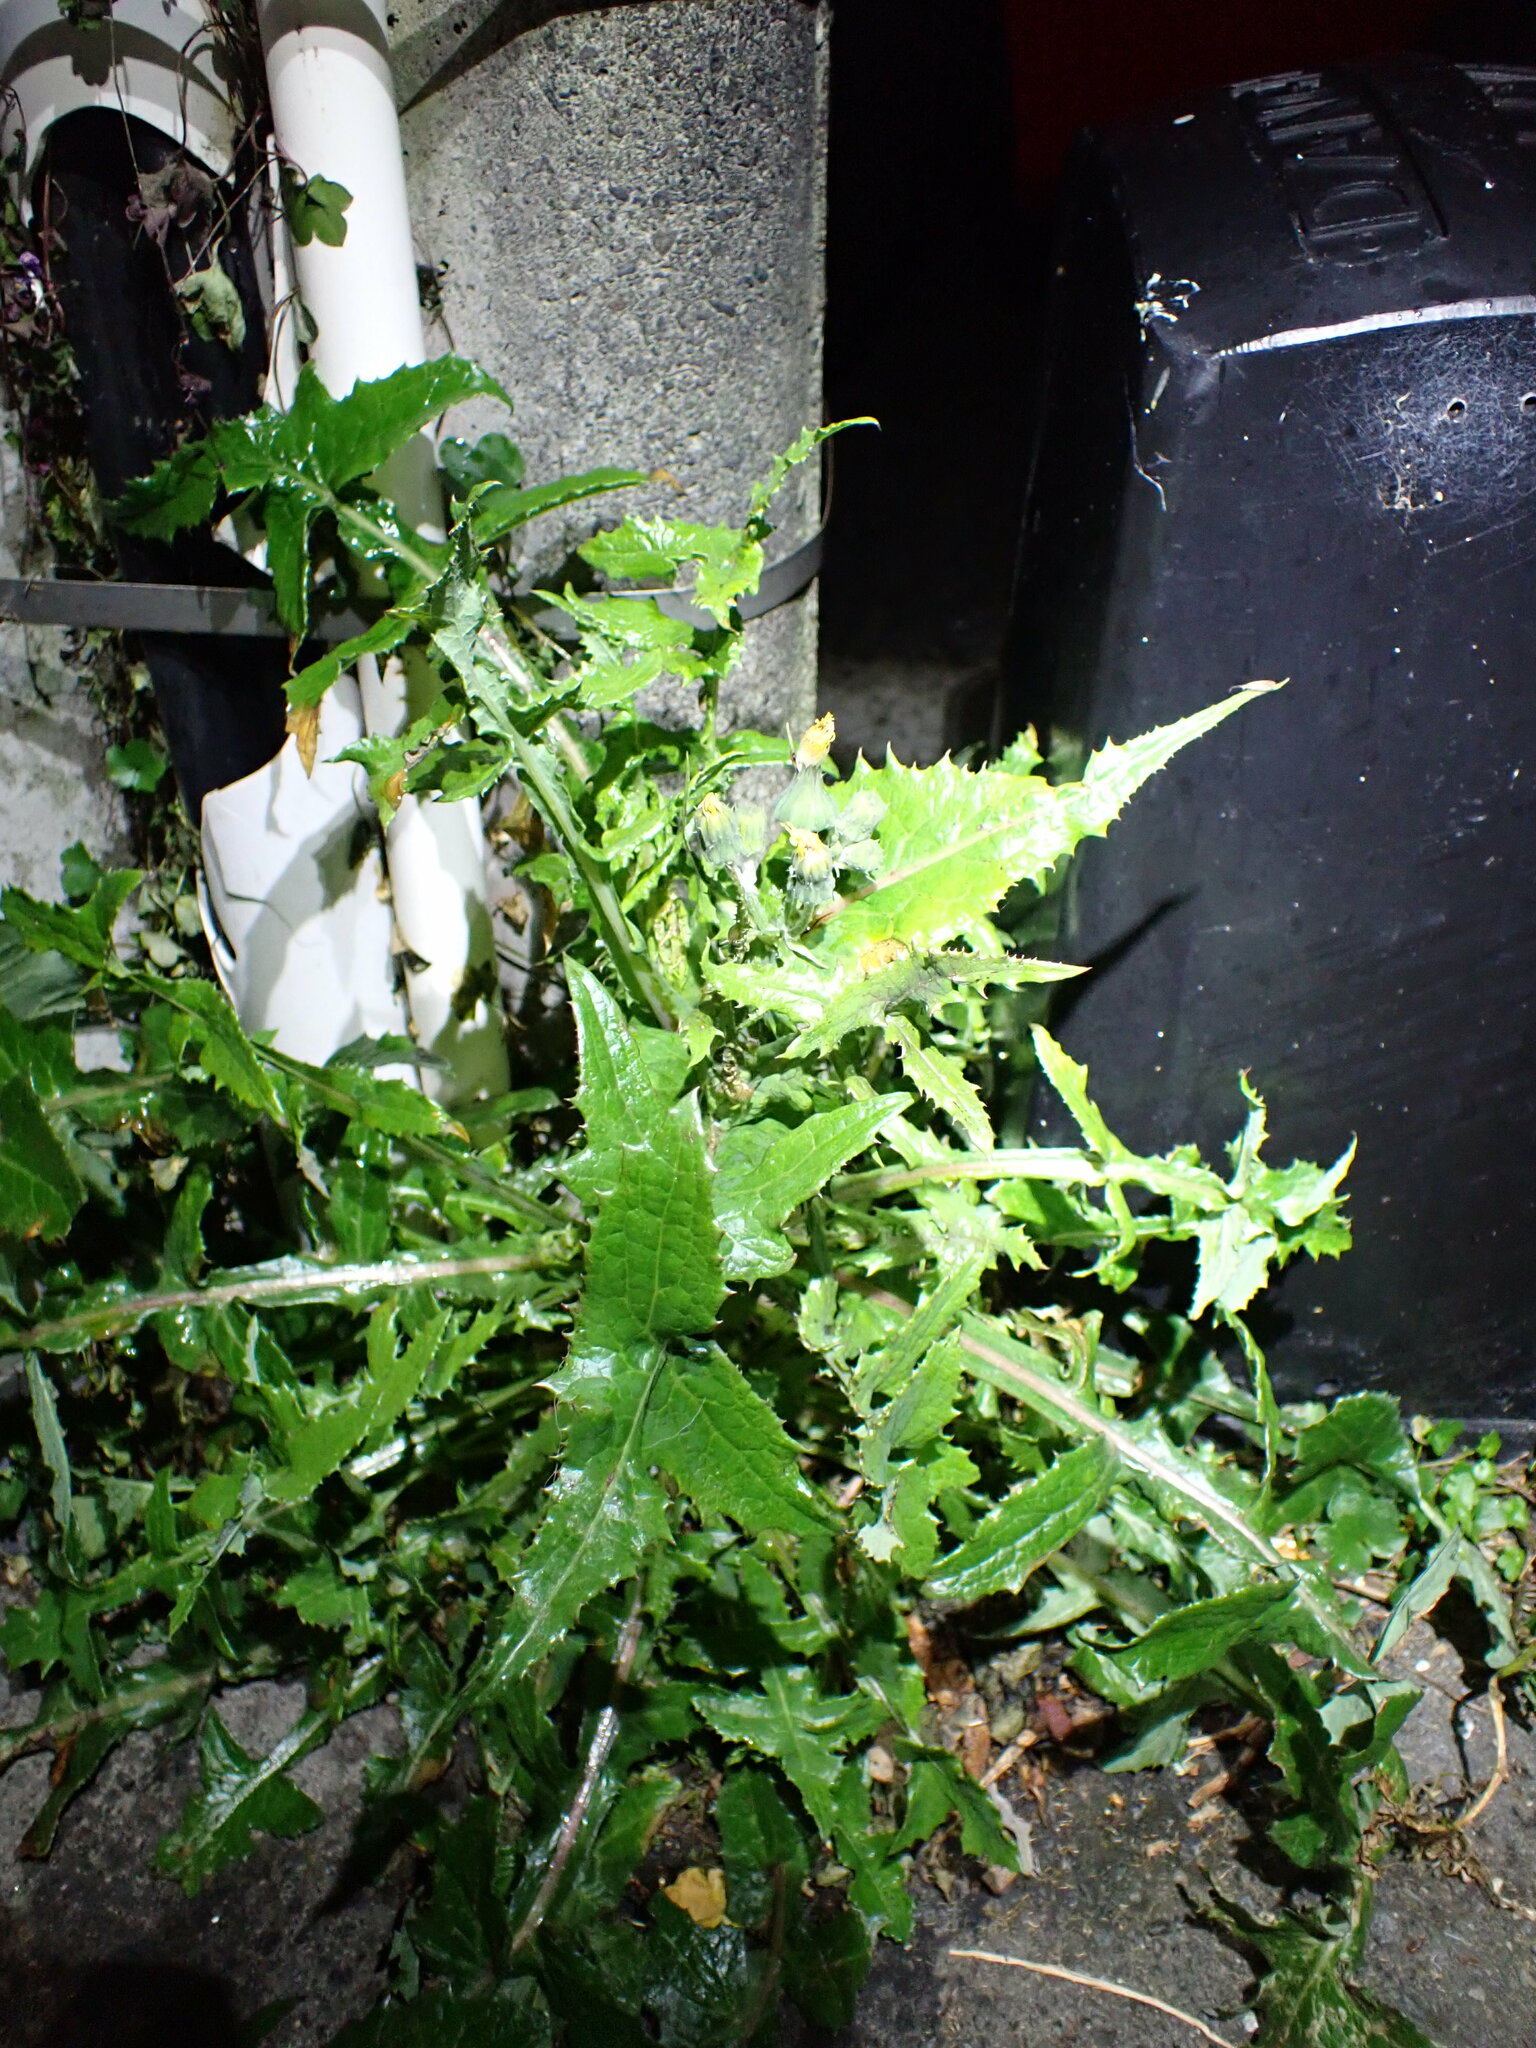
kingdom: Plantae
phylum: Tracheophyta
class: Magnoliopsida
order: Asterales
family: Asteraceae
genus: Sonchus
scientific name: Sonchus asper
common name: Prickly sow-thistle
